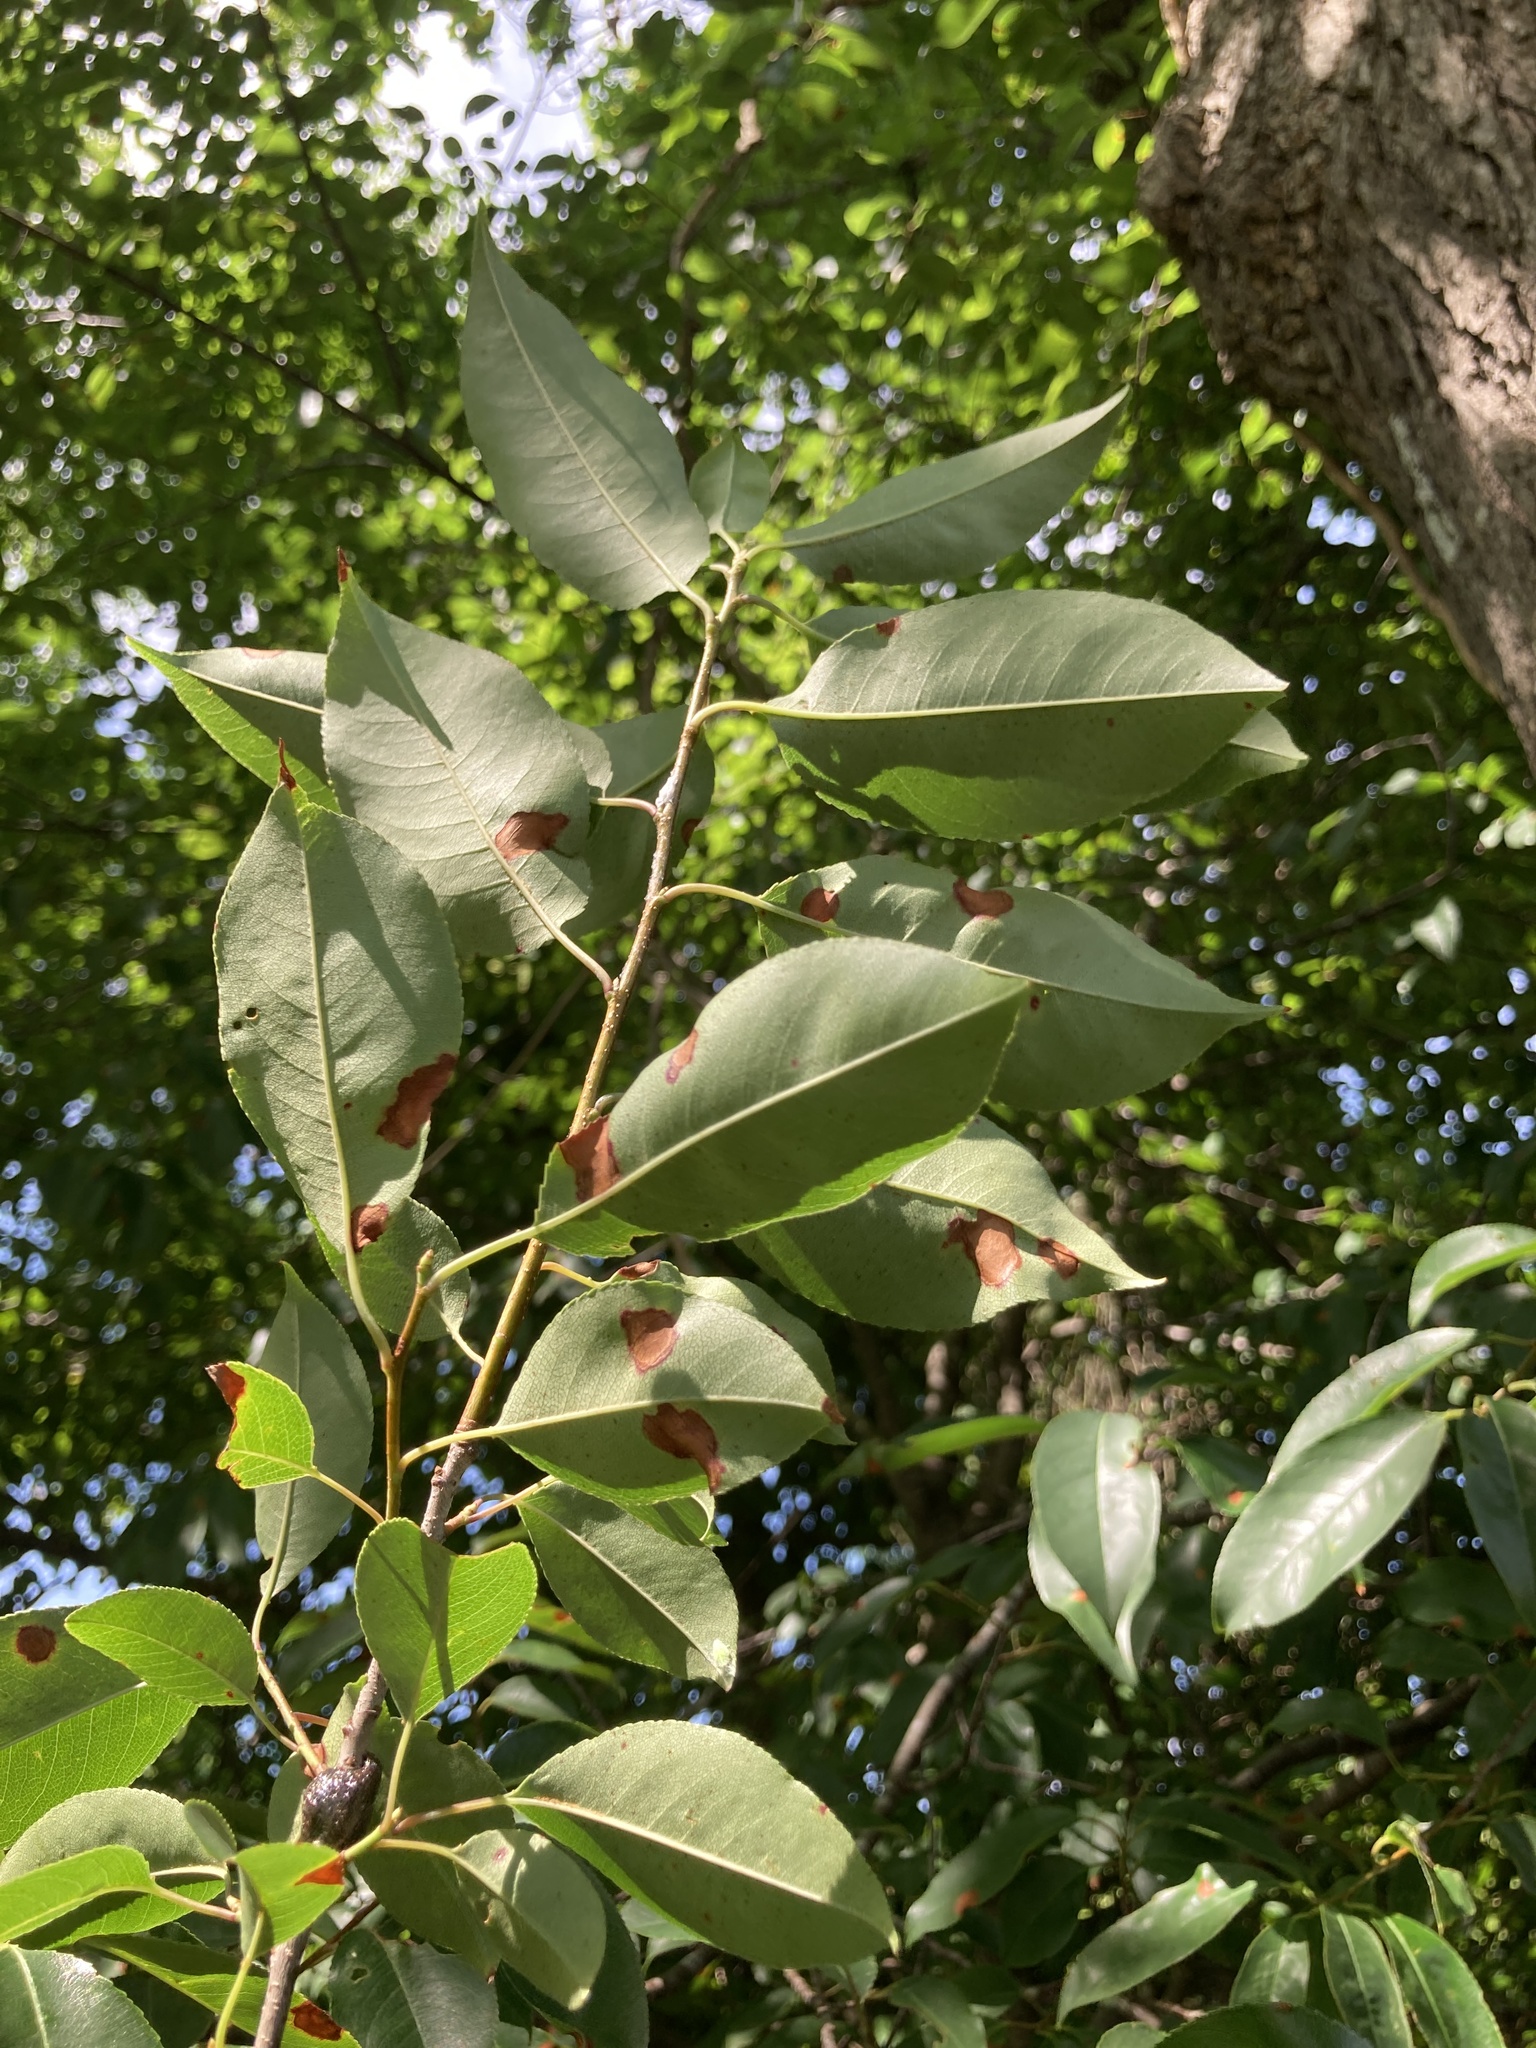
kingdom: Plantae
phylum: Tracheophyta
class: Magnoliopsida
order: Rosales
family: Rosaceae
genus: Prunus
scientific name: Prunus serotina
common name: Black cherry
